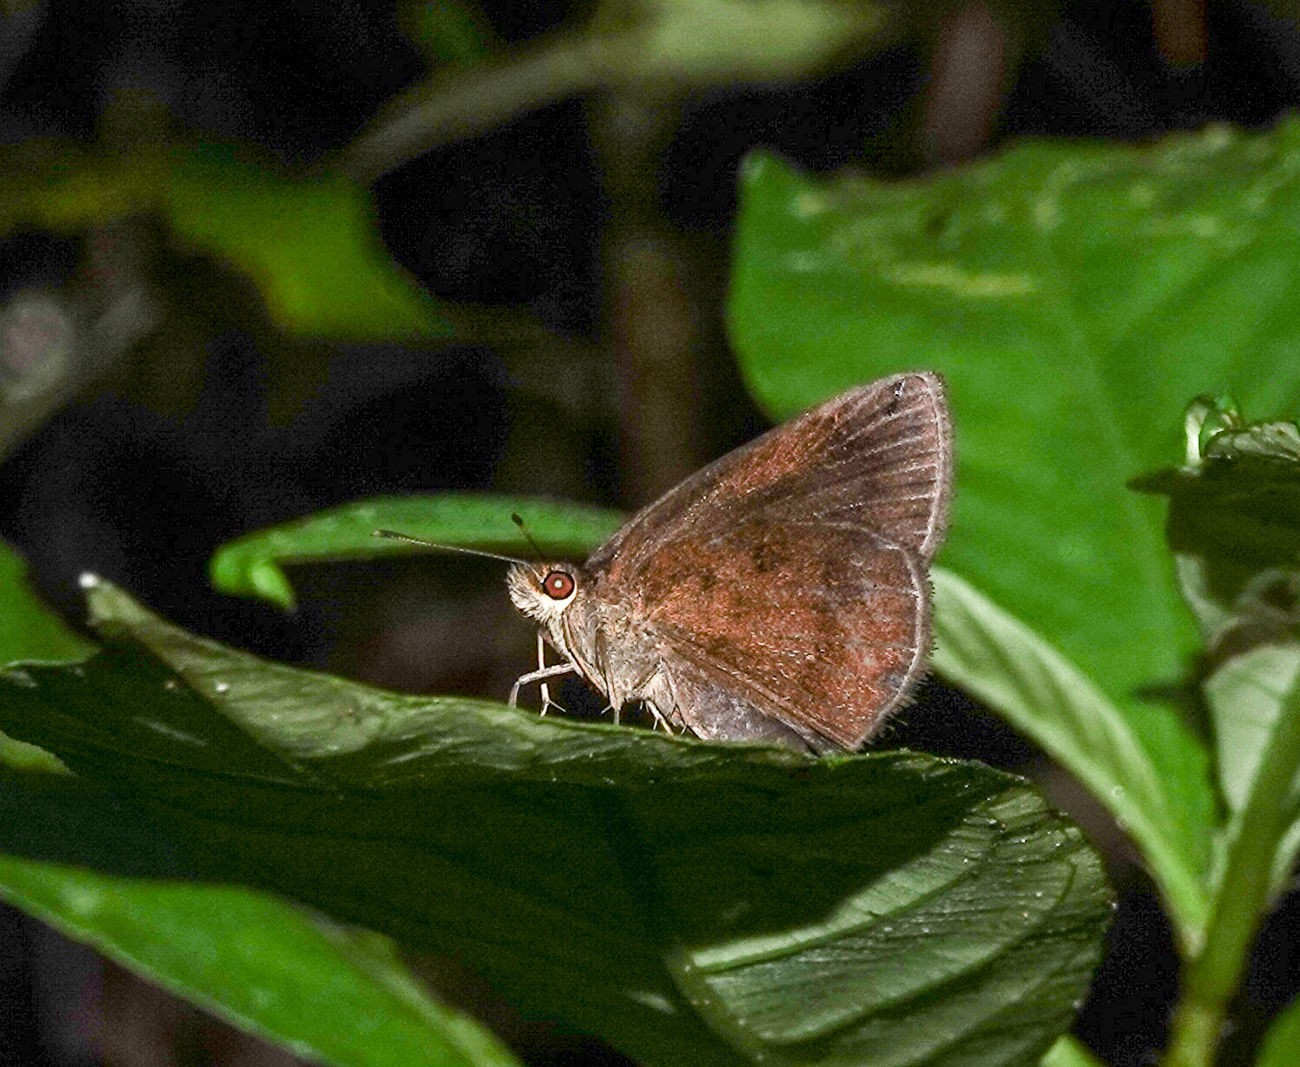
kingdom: Animalia
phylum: Arthropoda
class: Insecta
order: Lepidoptera
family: Hesperiidae
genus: Astictopterus
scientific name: Astictopterus jama
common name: Forest hopper
